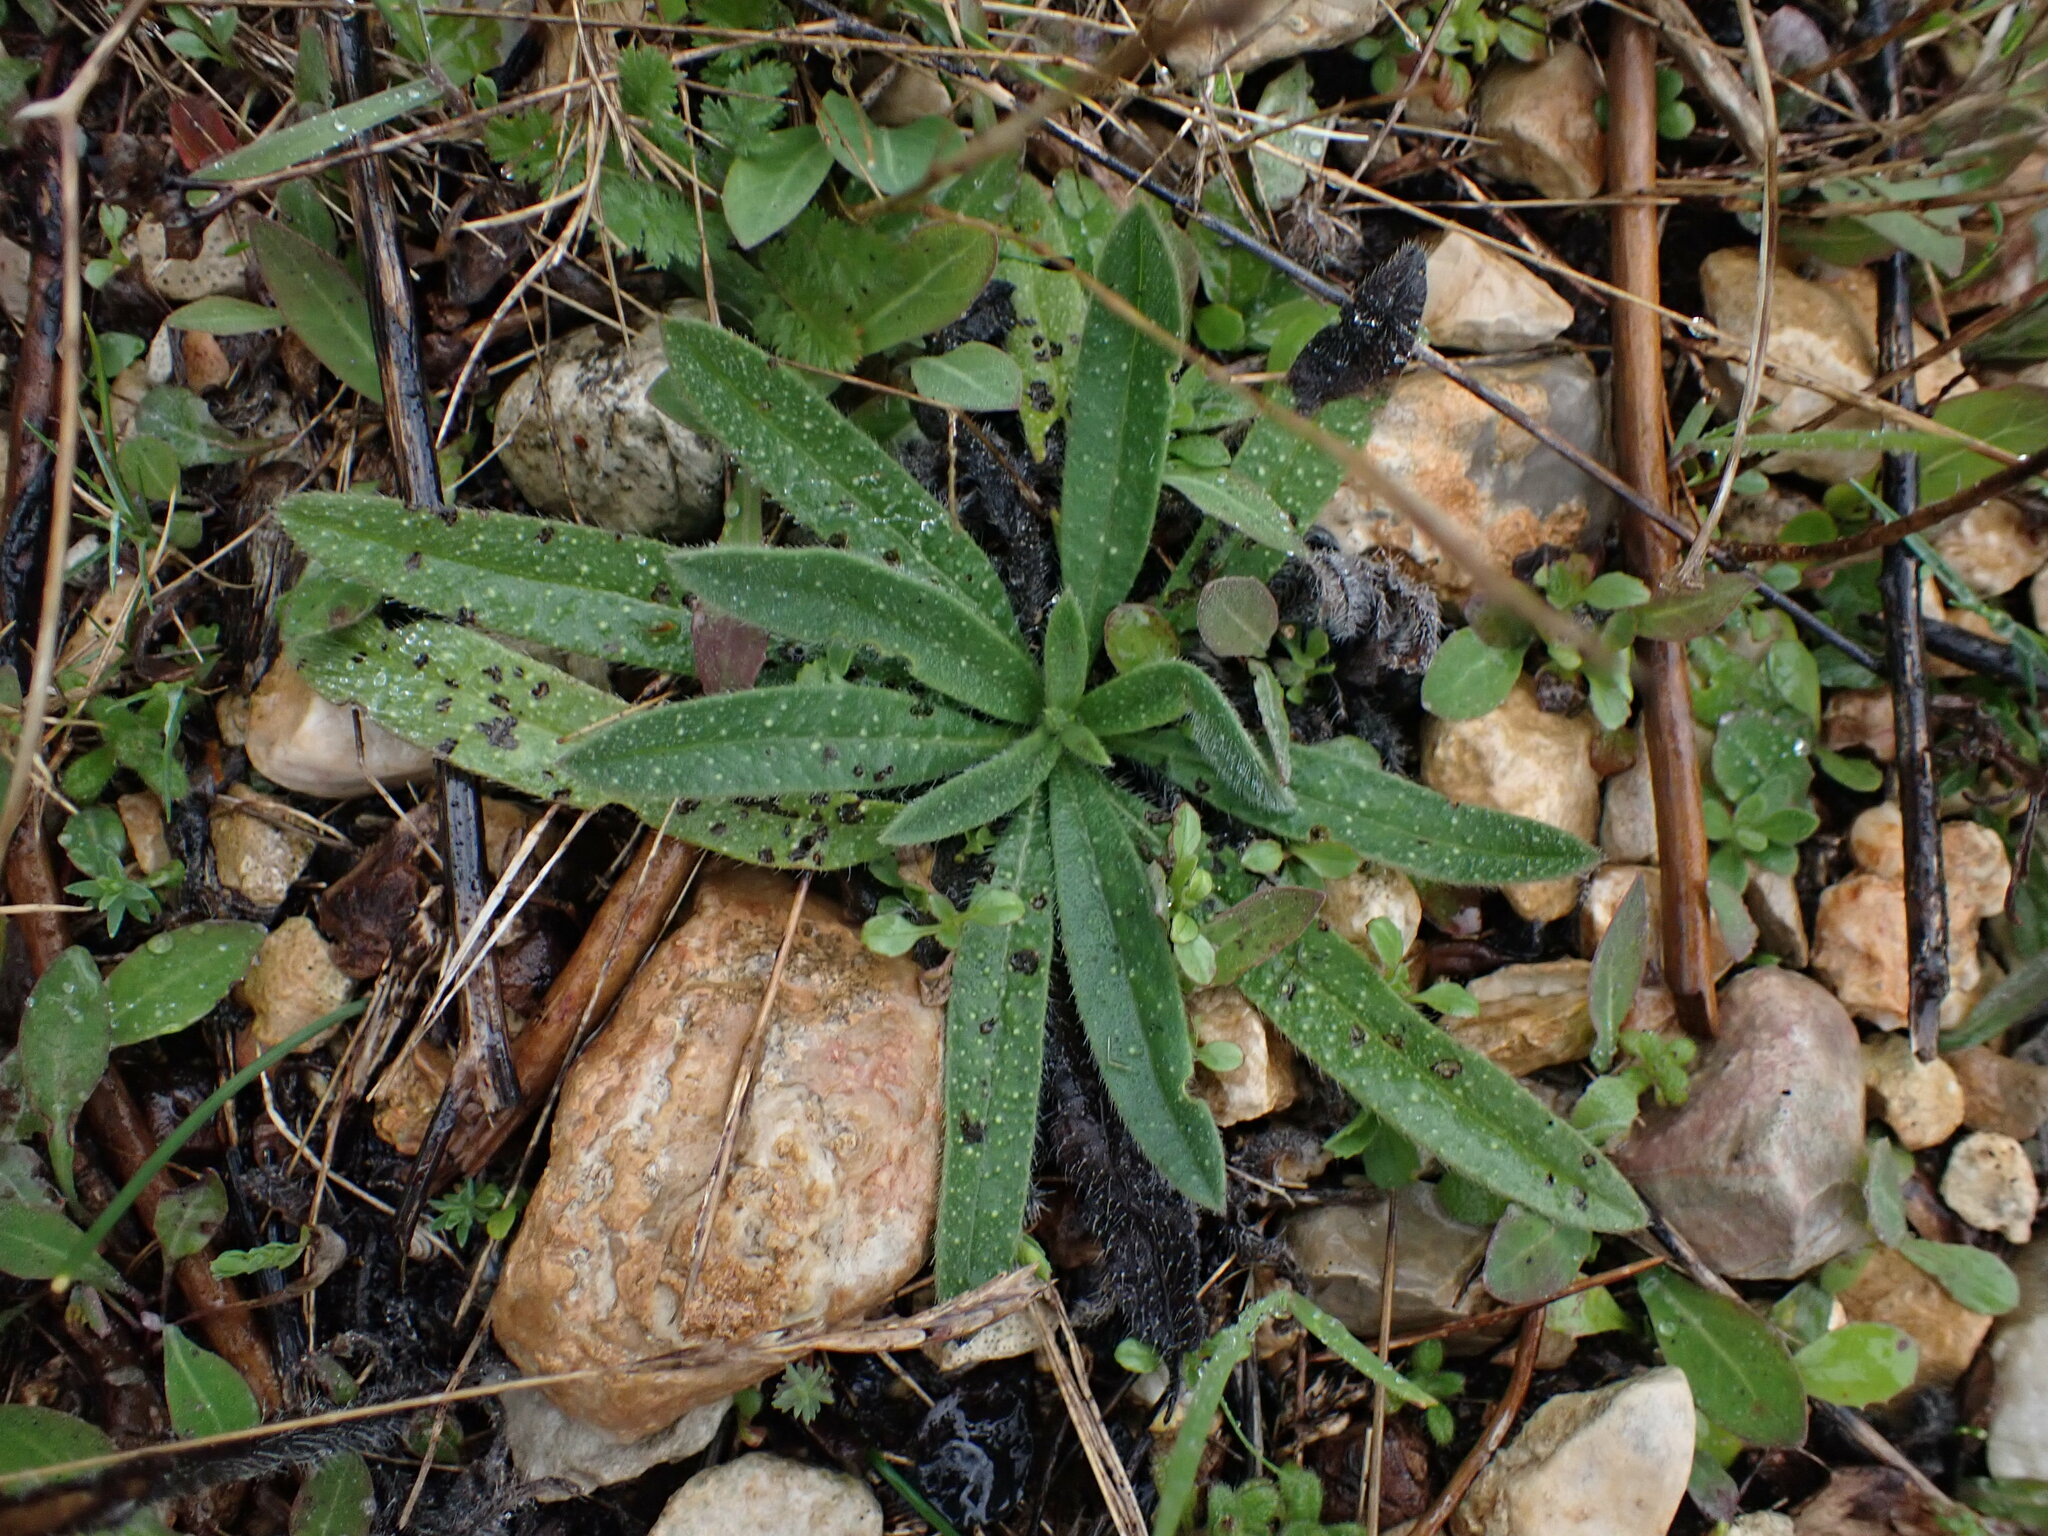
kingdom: Plantae
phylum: Tracheophyta
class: Magnoliopsida
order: Boraginales
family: Boraginaceae
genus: Echium
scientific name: Echium vulgare
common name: Common viper's bugloss
